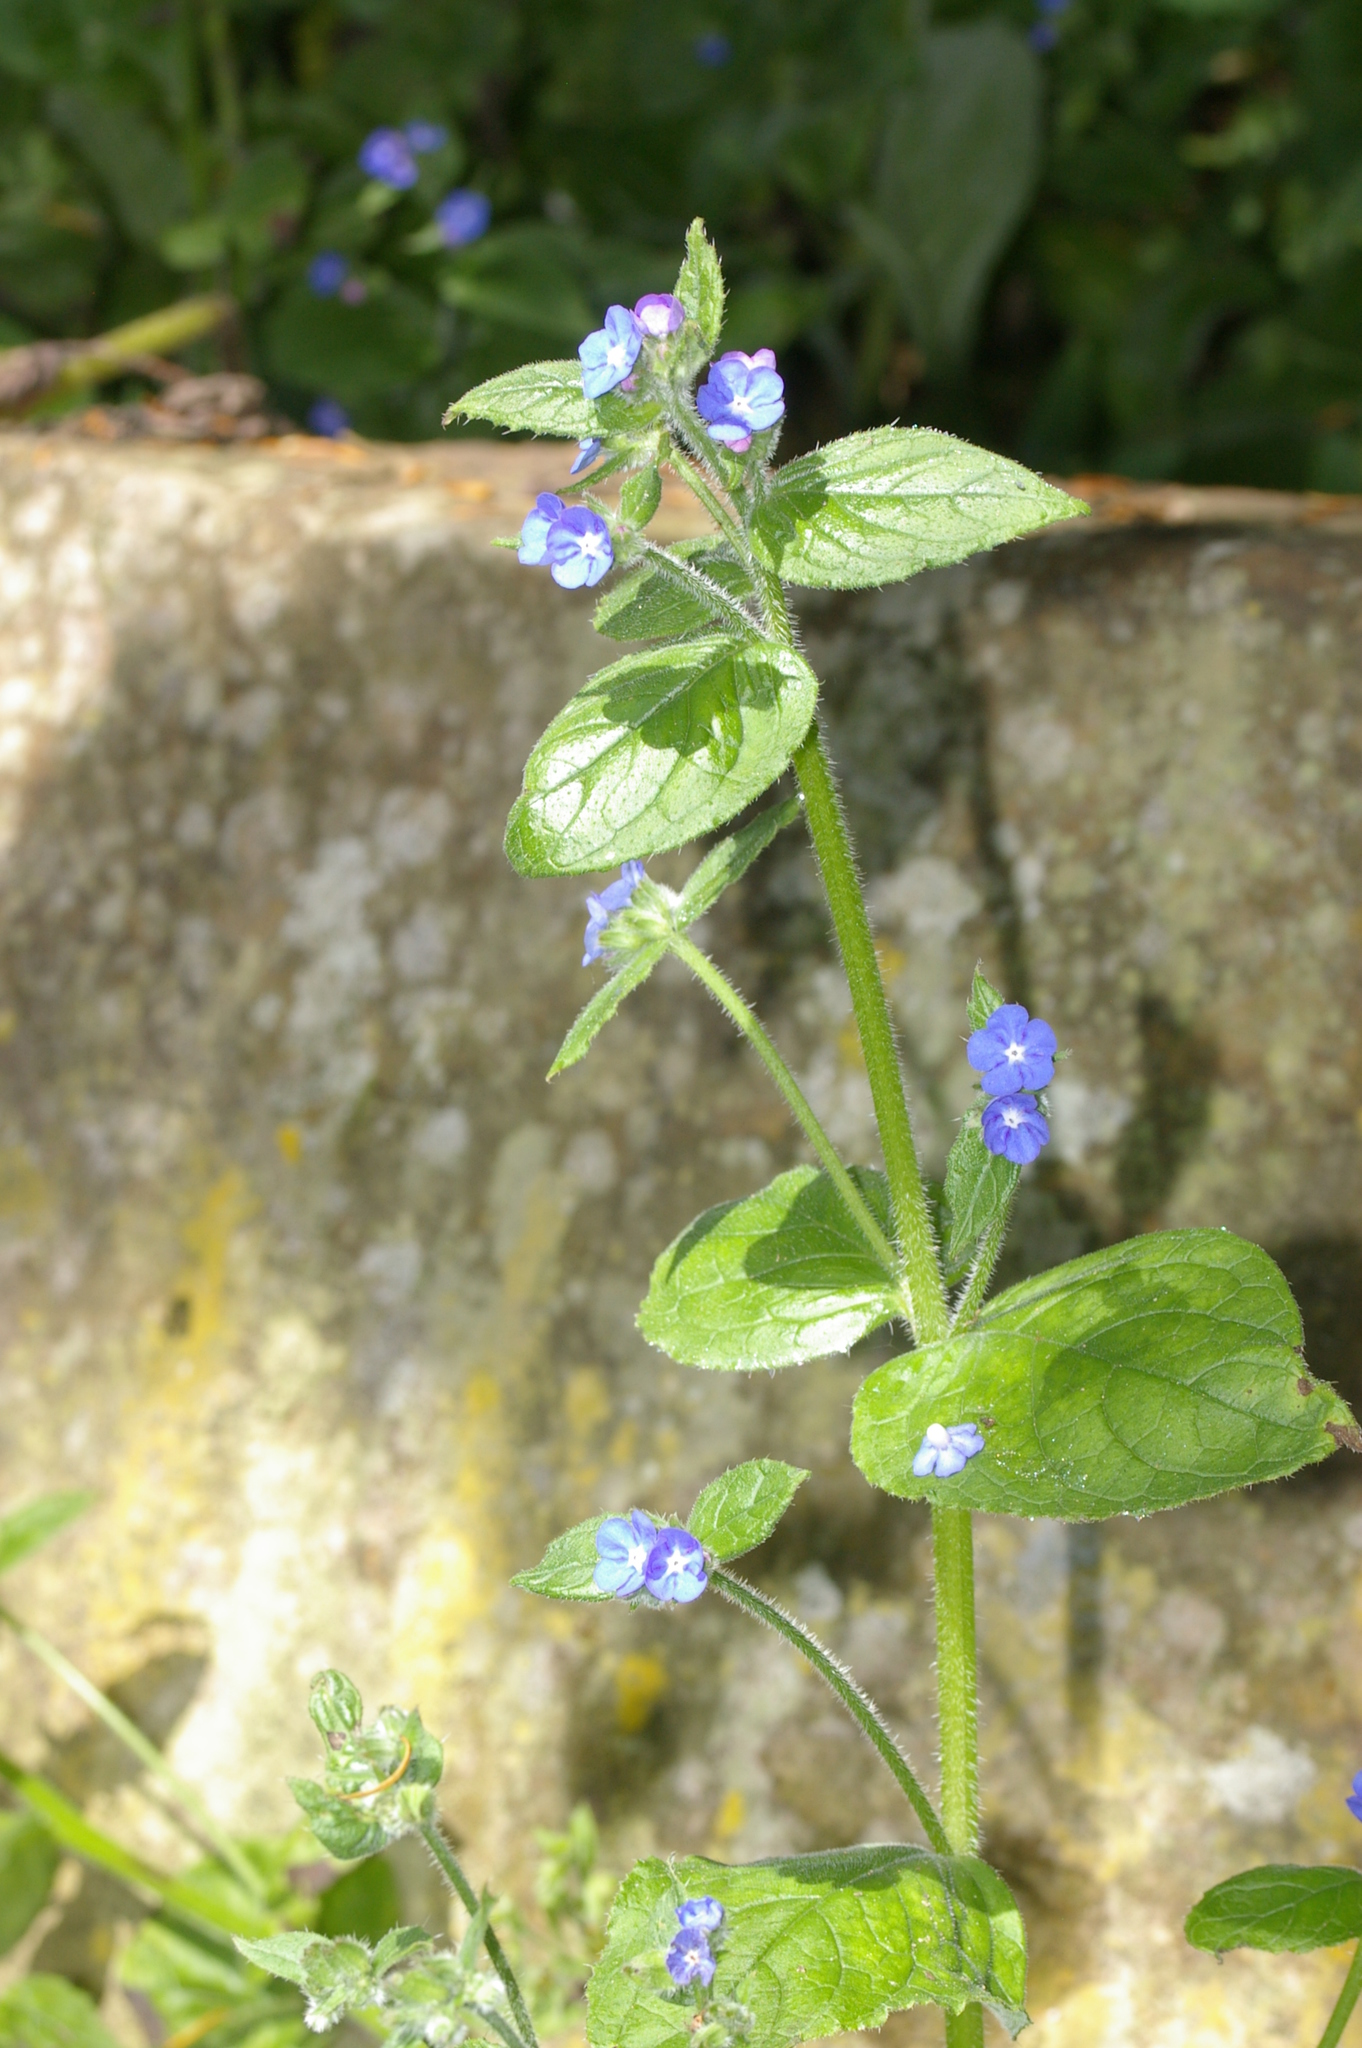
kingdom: Animalia
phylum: Arthropoda
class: Insecta
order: Lepidoptera
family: Pieridae
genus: Pieris
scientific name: Pieris napi
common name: Green-veined white
